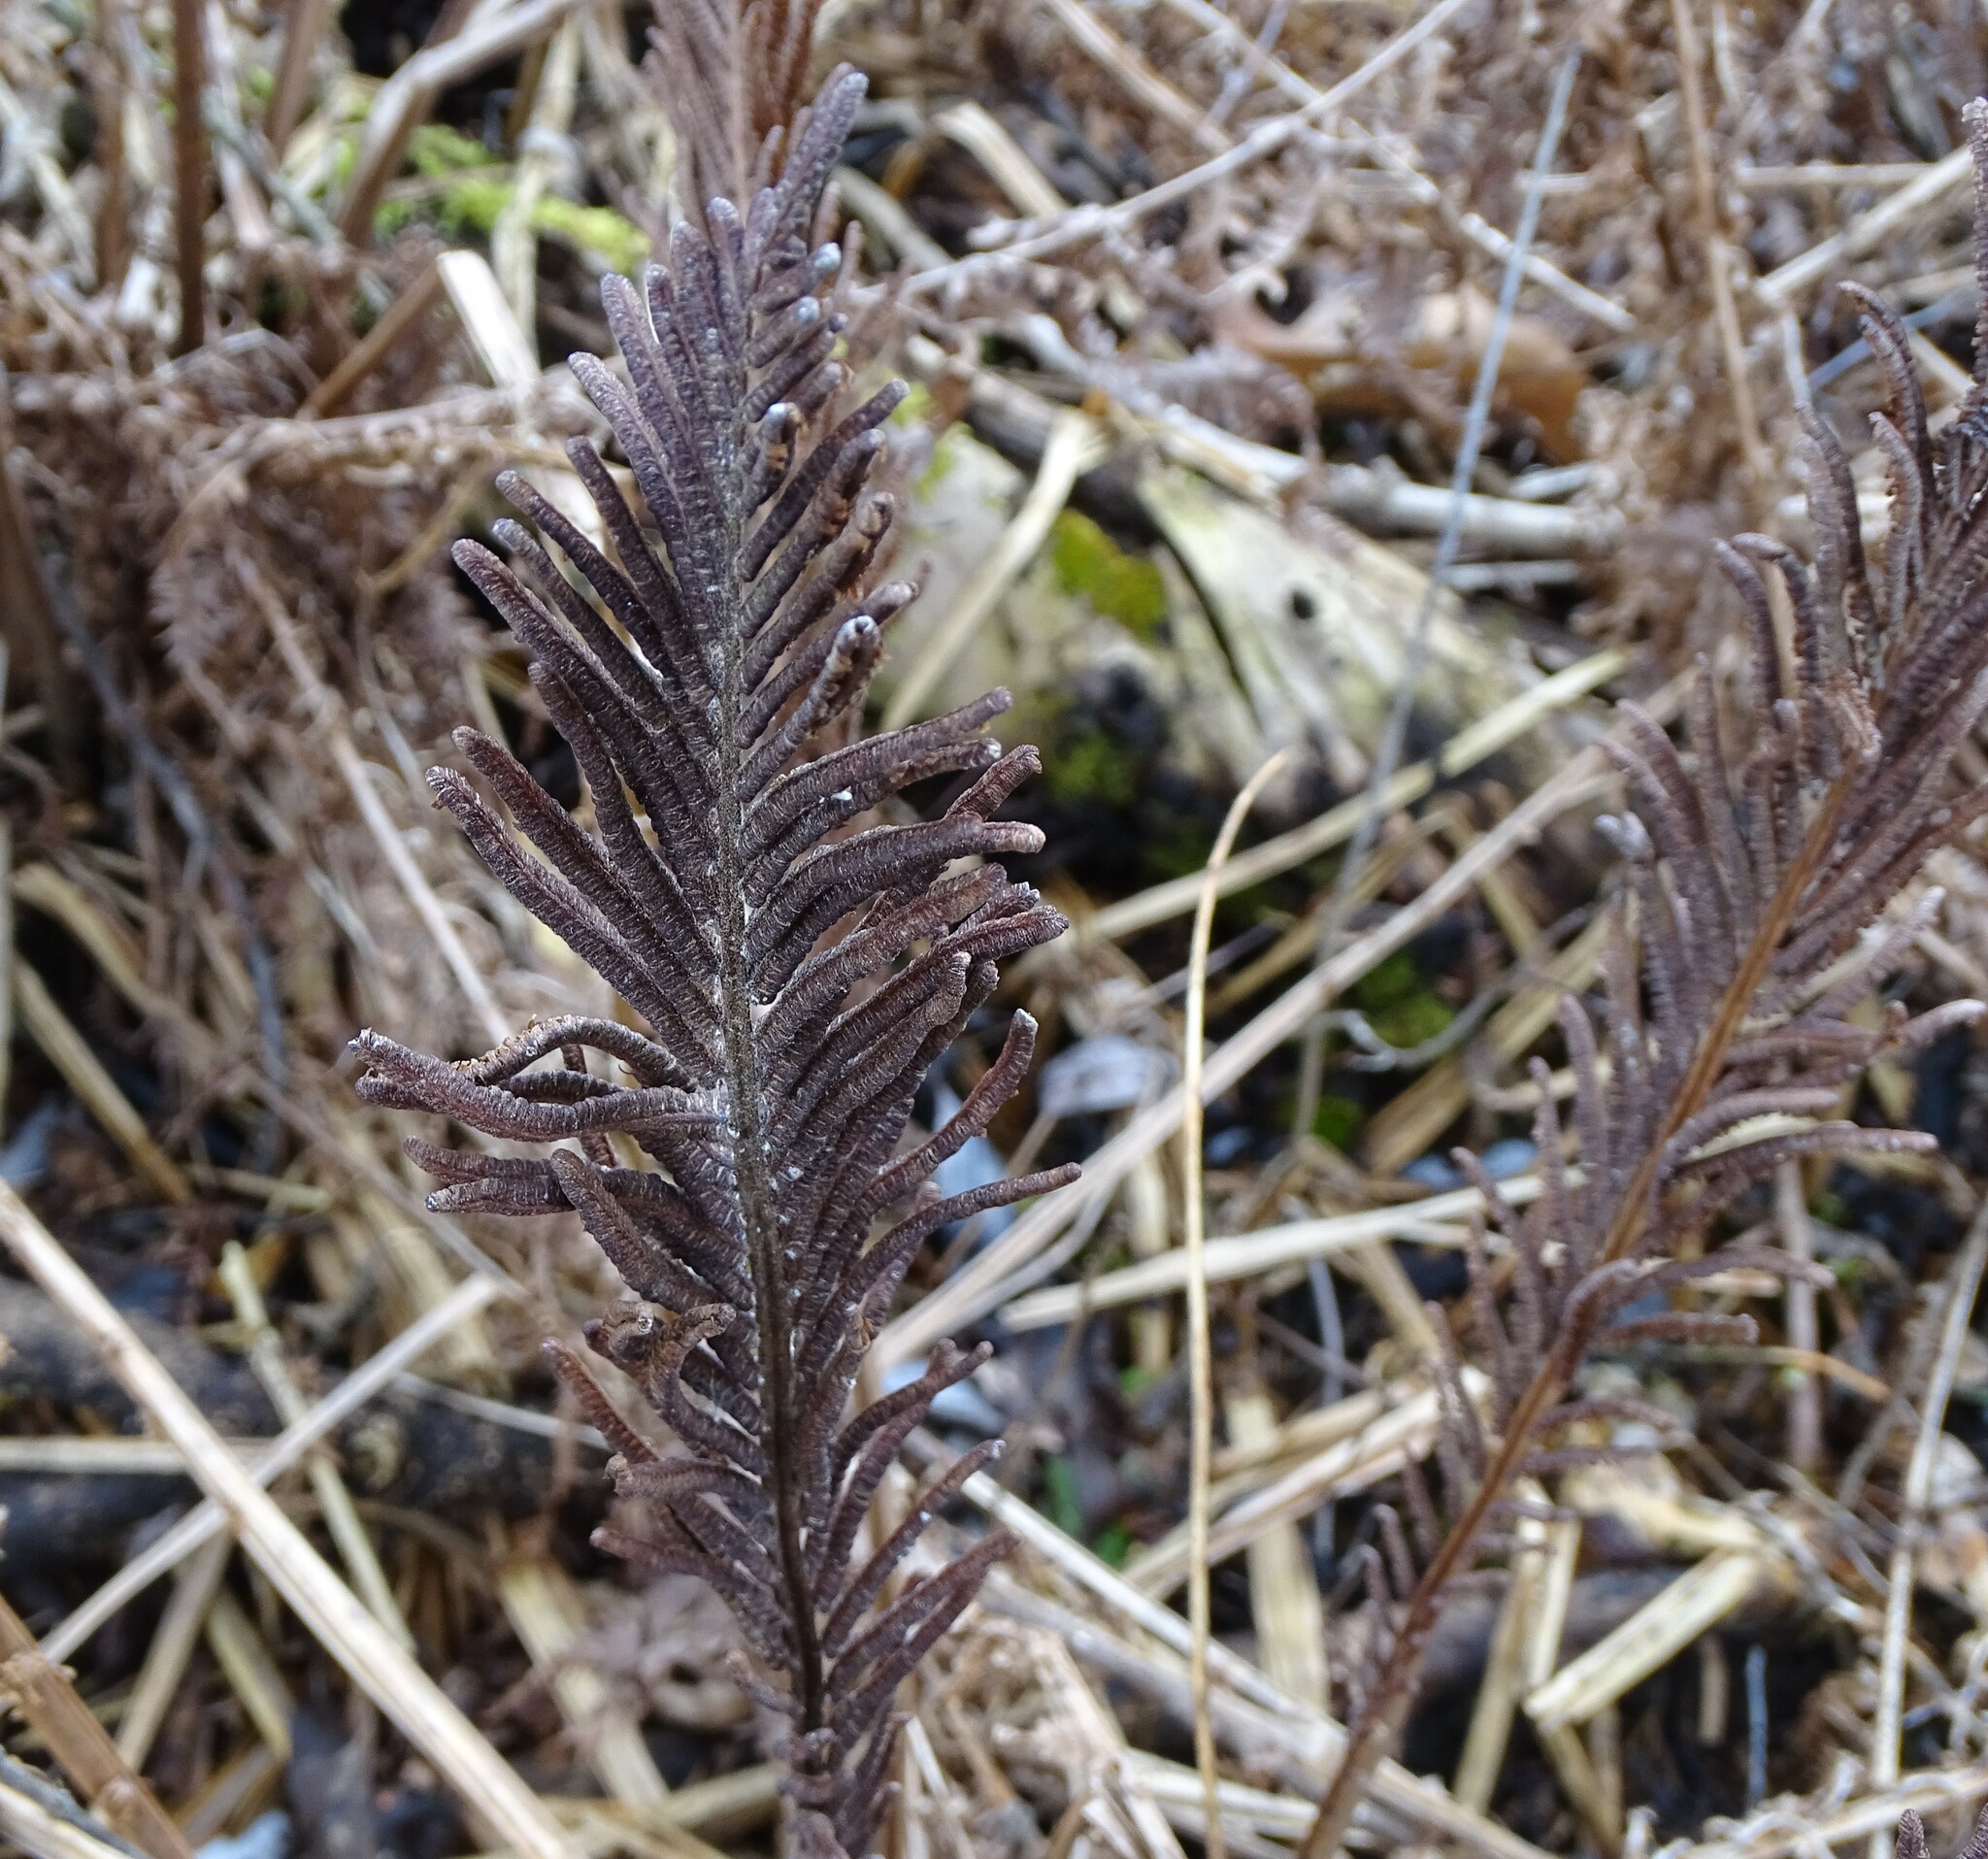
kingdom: Plantae
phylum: Tracheophyta
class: Polypodiopsida
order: Polypodiales
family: Onocleaceae
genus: Matteuccia
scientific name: Matteuccia struthiopteris
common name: Ostrich fern
